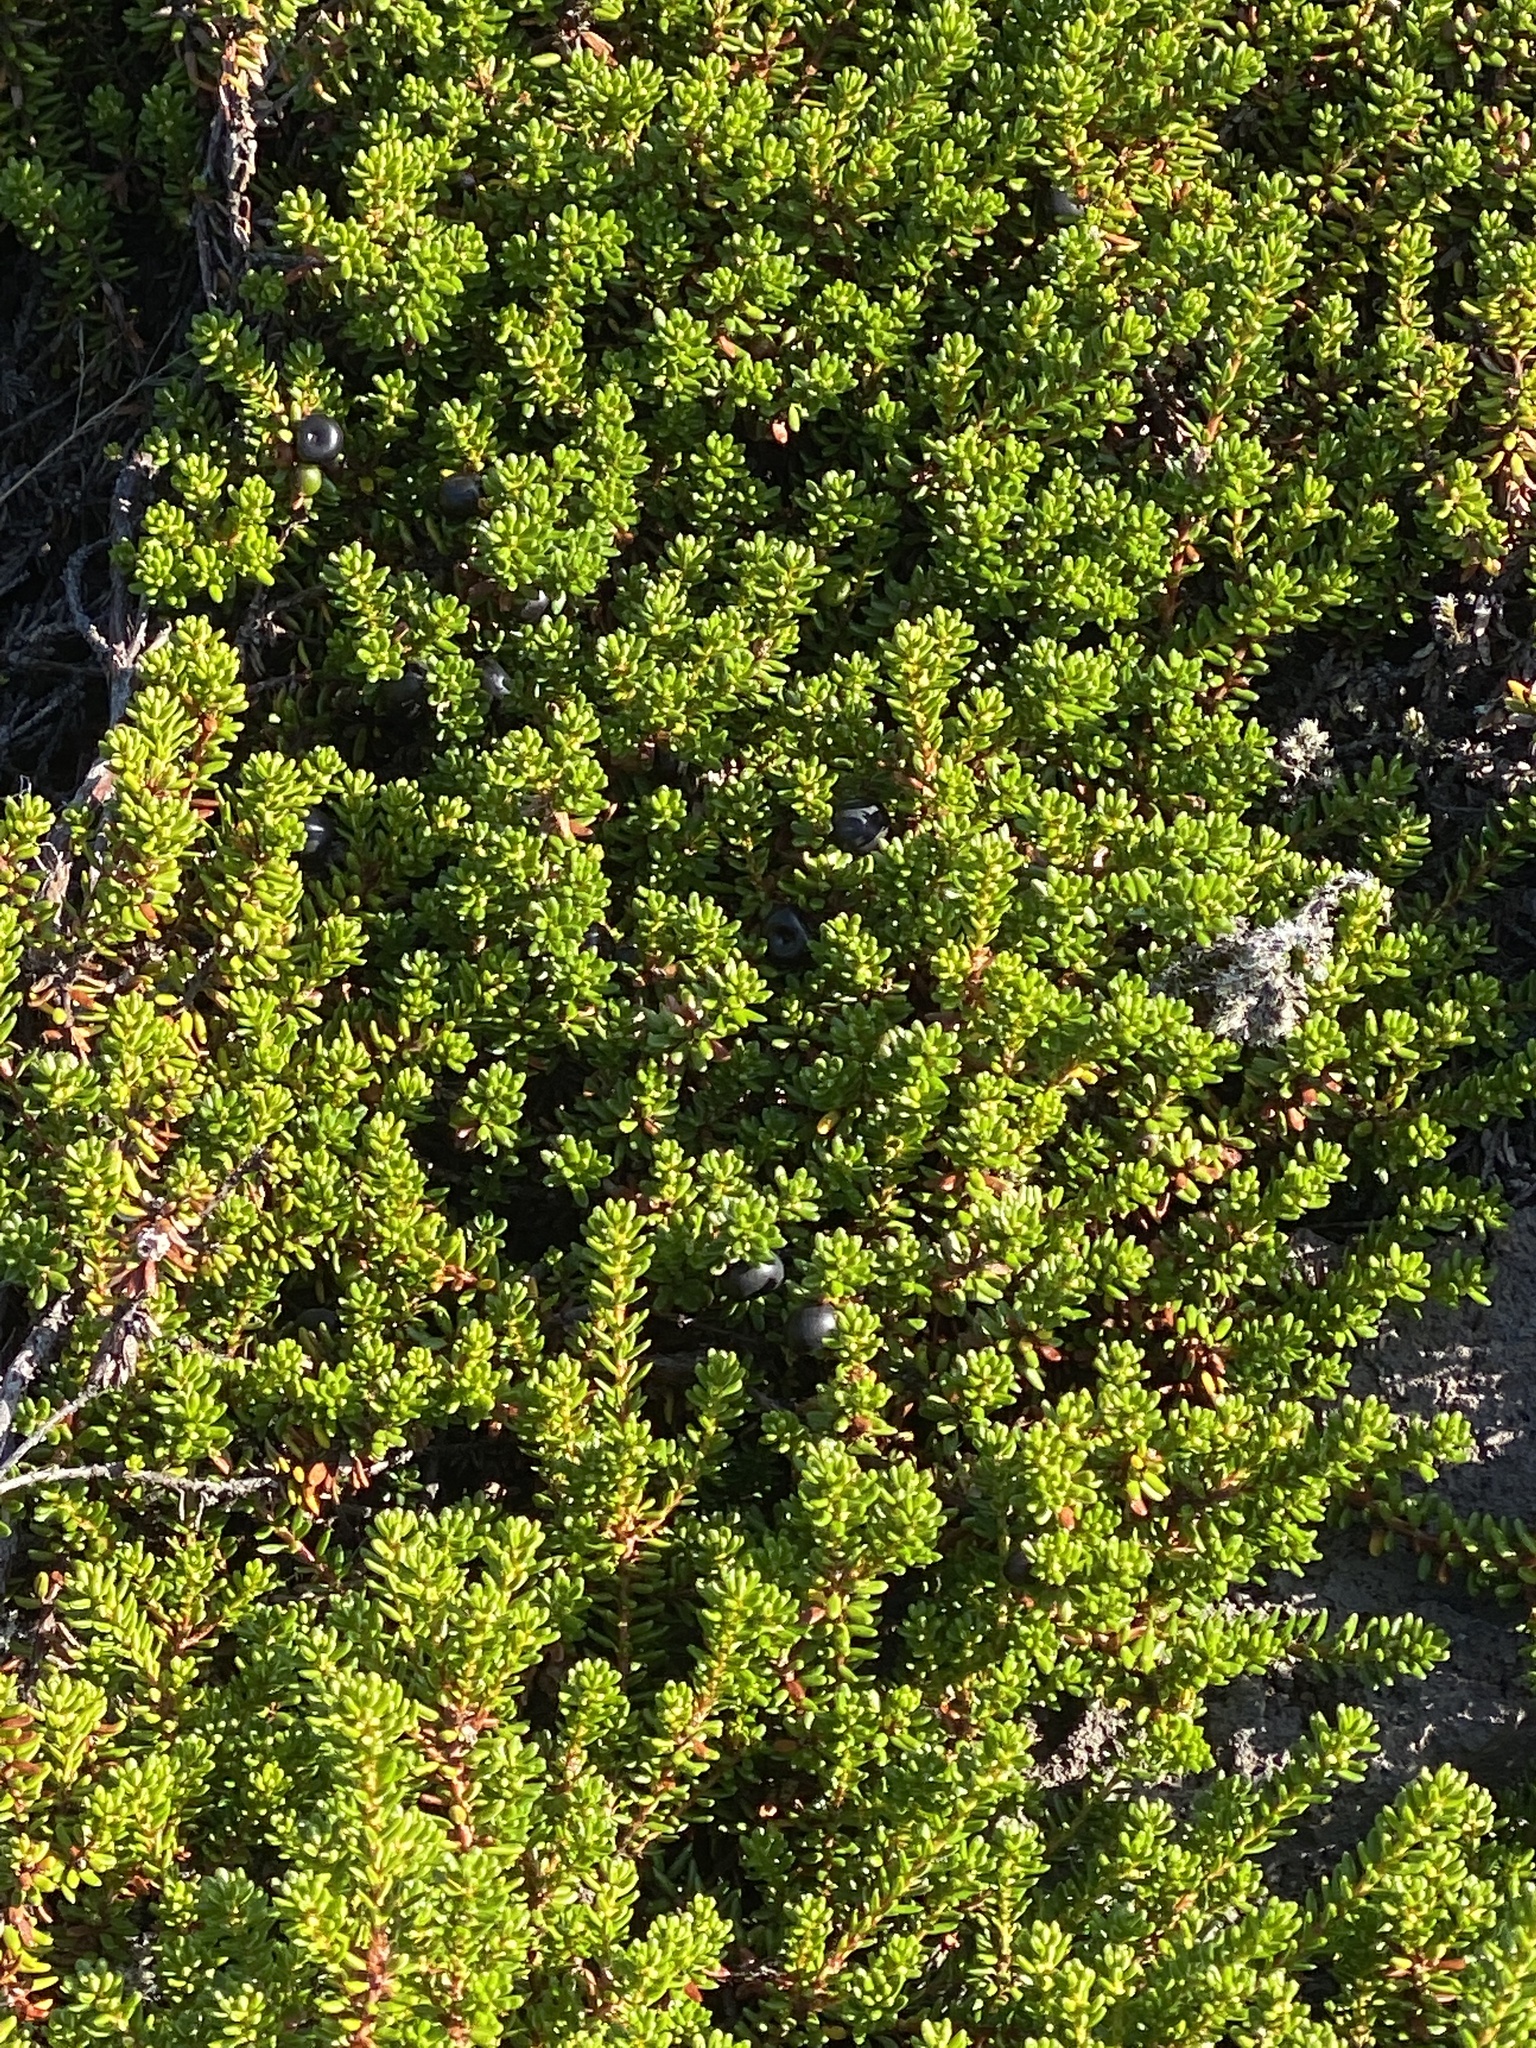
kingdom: Plantae
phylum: Tracheophyta
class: Magnoliopsida
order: Ericales
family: Ericaceae
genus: Empetrum
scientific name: Empetrum nigrum
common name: Black crowberry
